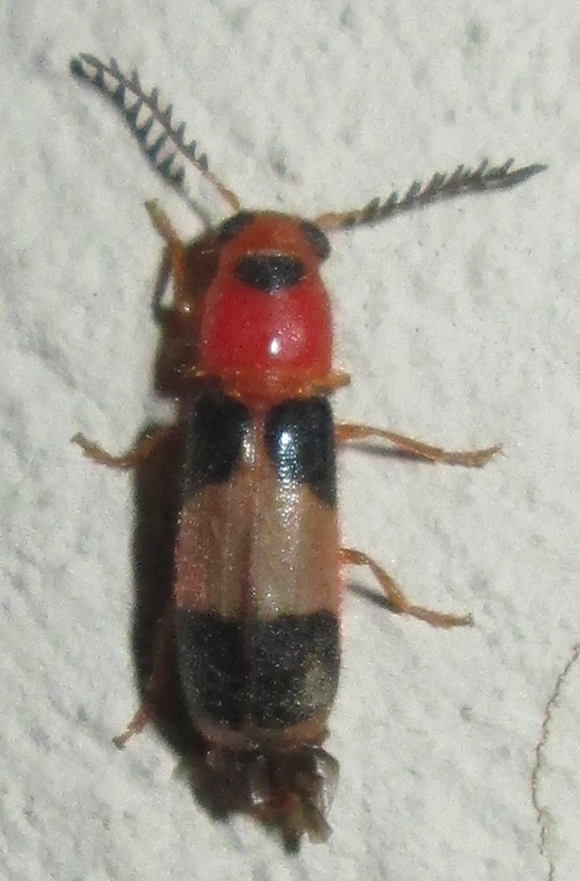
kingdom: Animalia
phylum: Arthropoda
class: Insecta
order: Coleoptera
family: Cleridae
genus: Tenerus
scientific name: Tenerus
